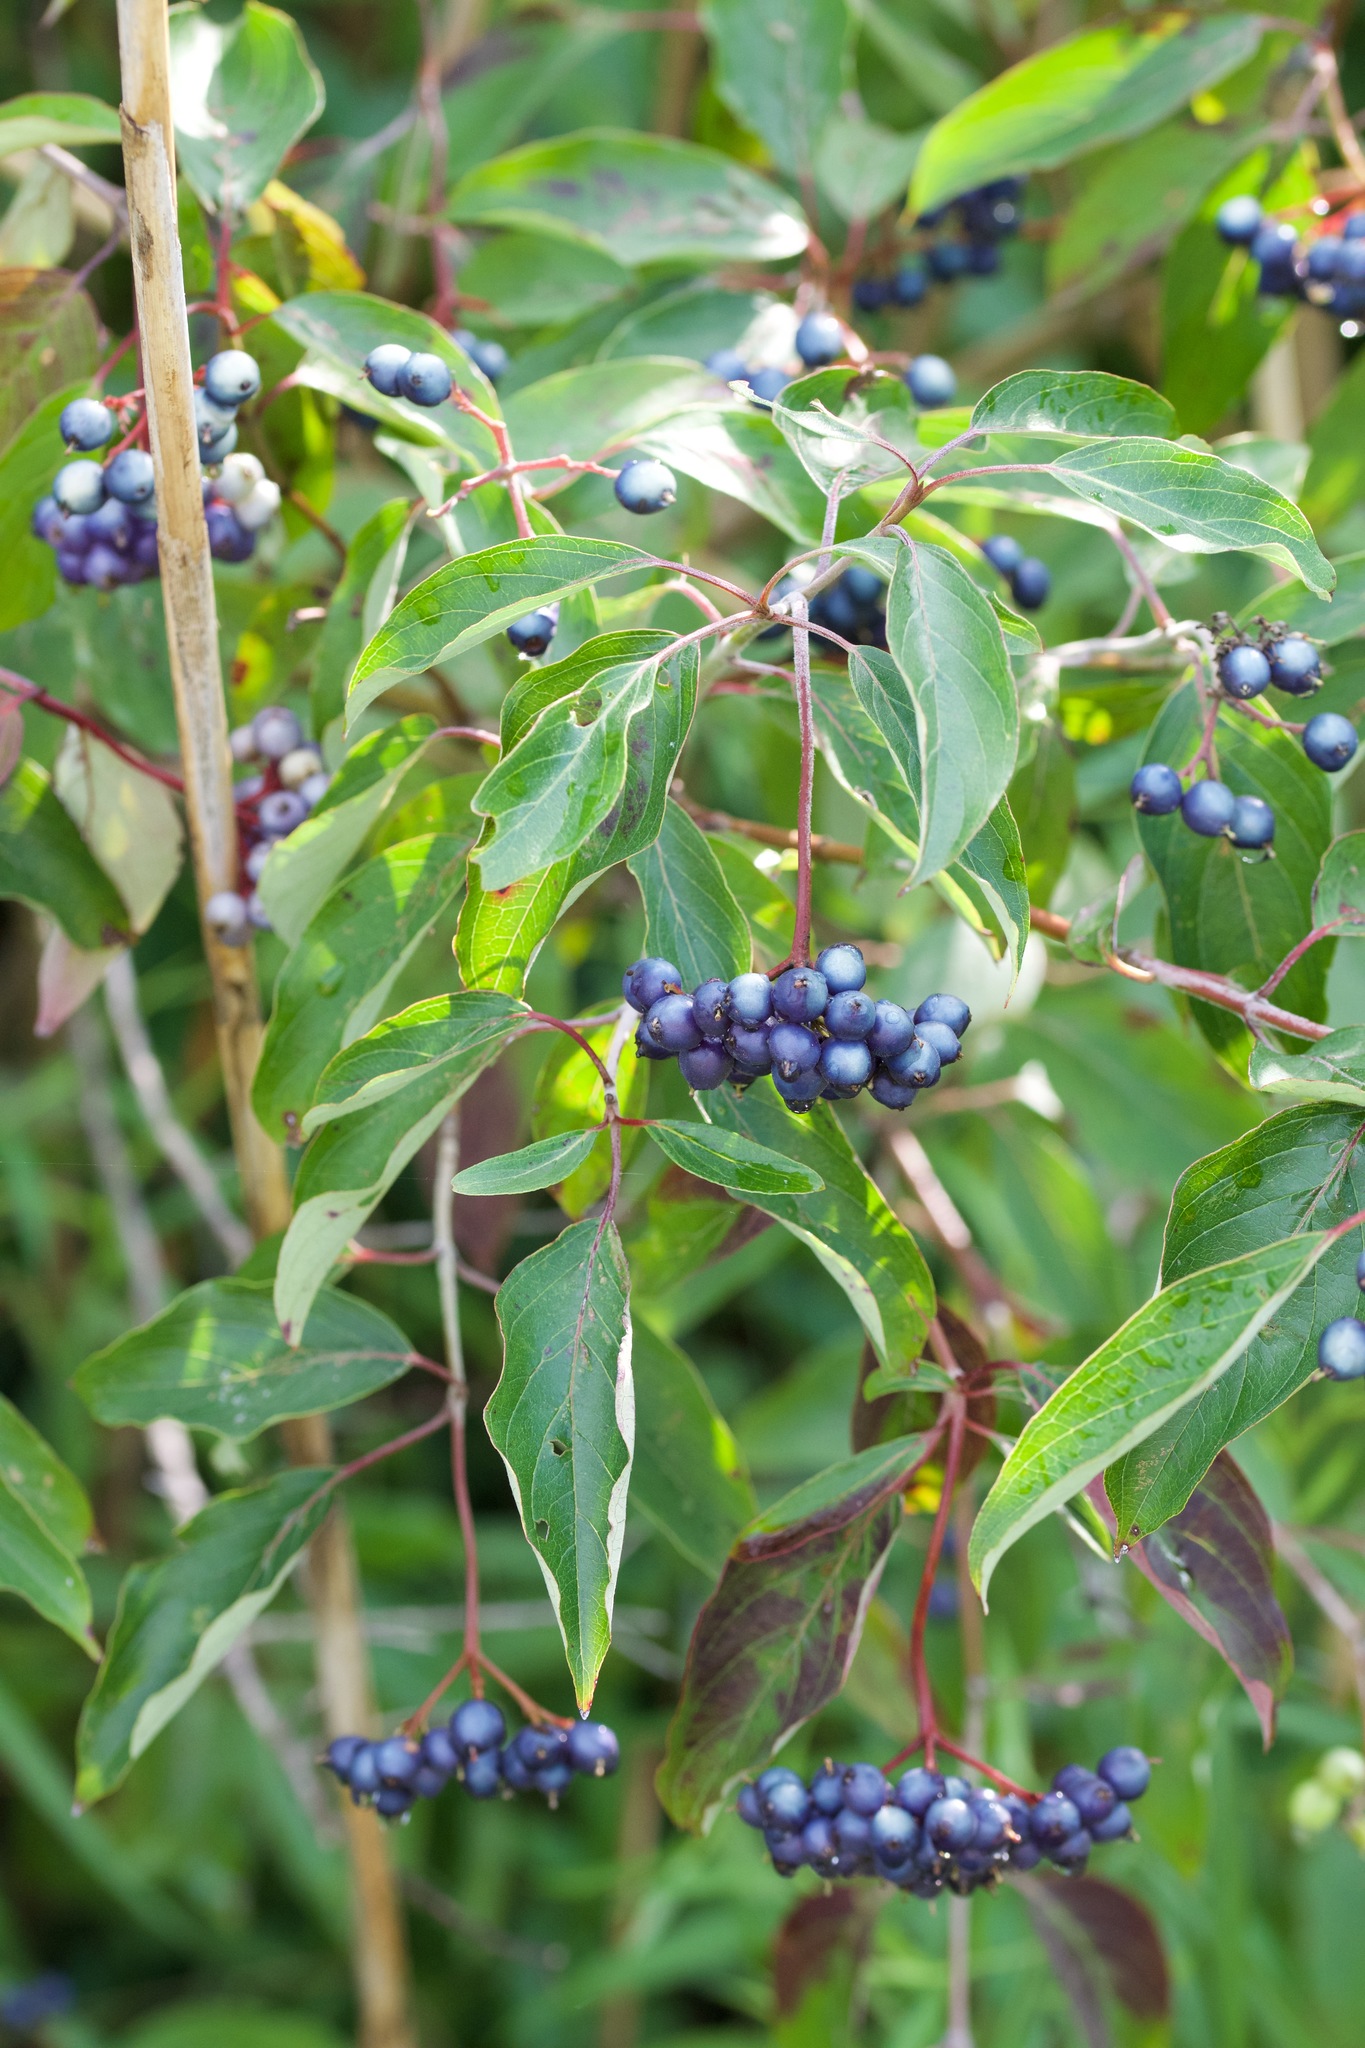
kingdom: Plantae
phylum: Tracheophyta
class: Magnoliopsida
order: Cornales
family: Cornaceae
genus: Cornus
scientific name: Cornus amomum
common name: Silky dogwood
